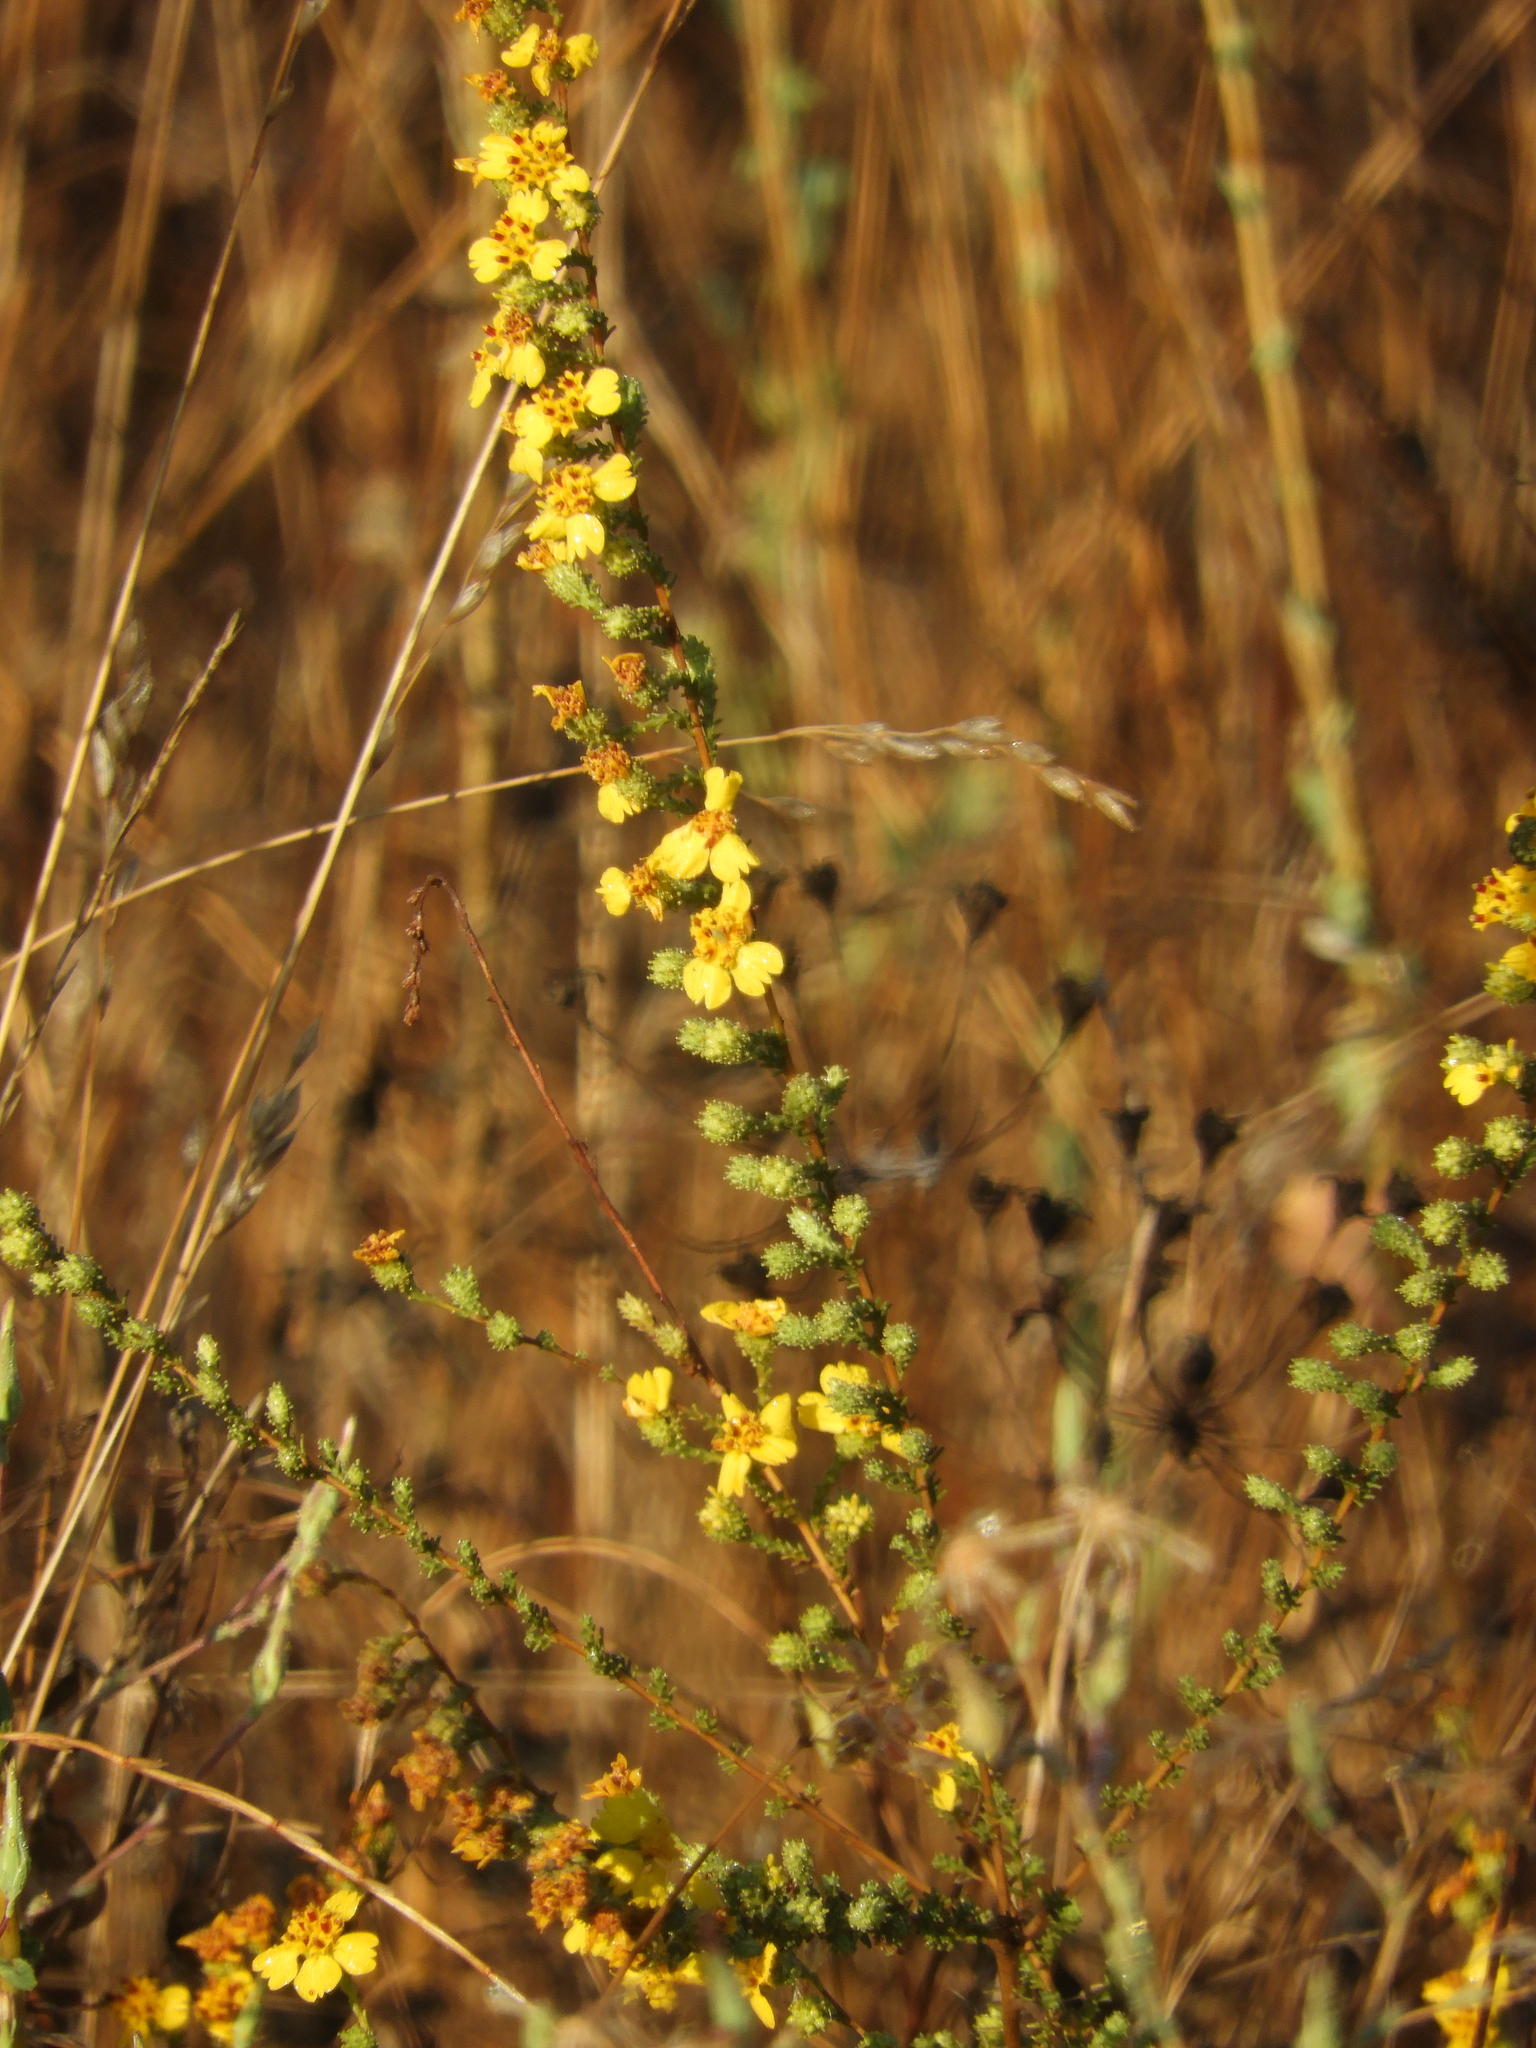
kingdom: Plantae
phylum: Tracheophyta
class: Magnoliopsida
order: Asterales
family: Asteraceae
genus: Holocarpha
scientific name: Holocarpha virgata
